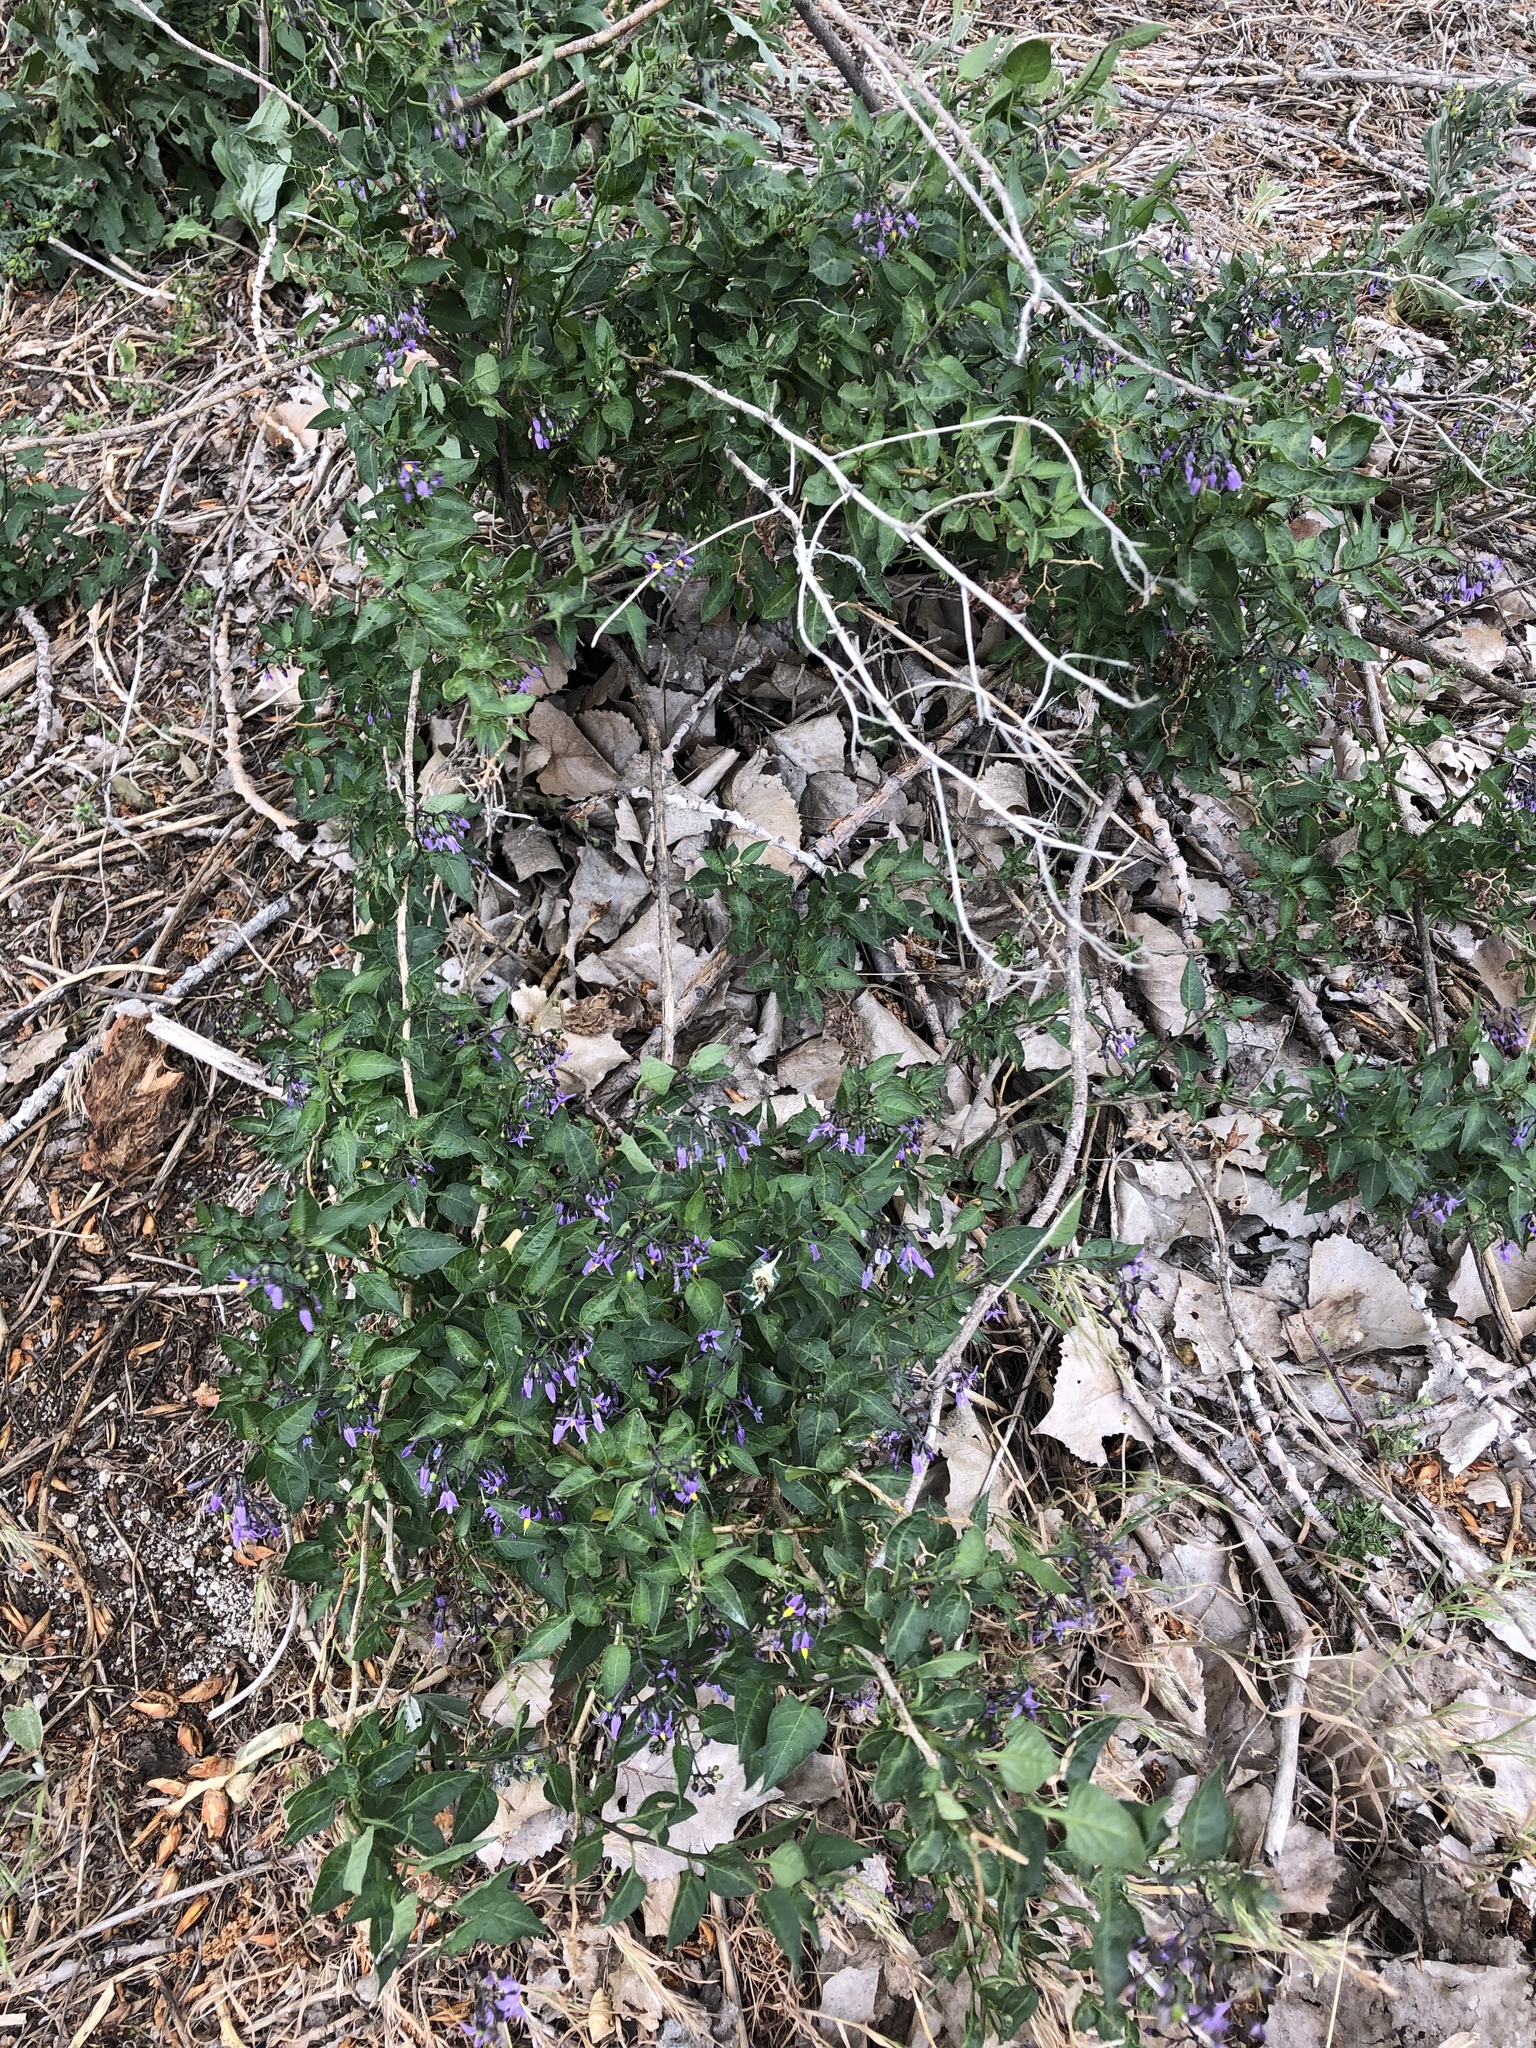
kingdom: Plantae
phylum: Tracheophyta
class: Magnoliopsida
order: Solanales
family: Solanaceae
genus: Solanum
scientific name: Solanum dulcamara
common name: Climbing nightshade
